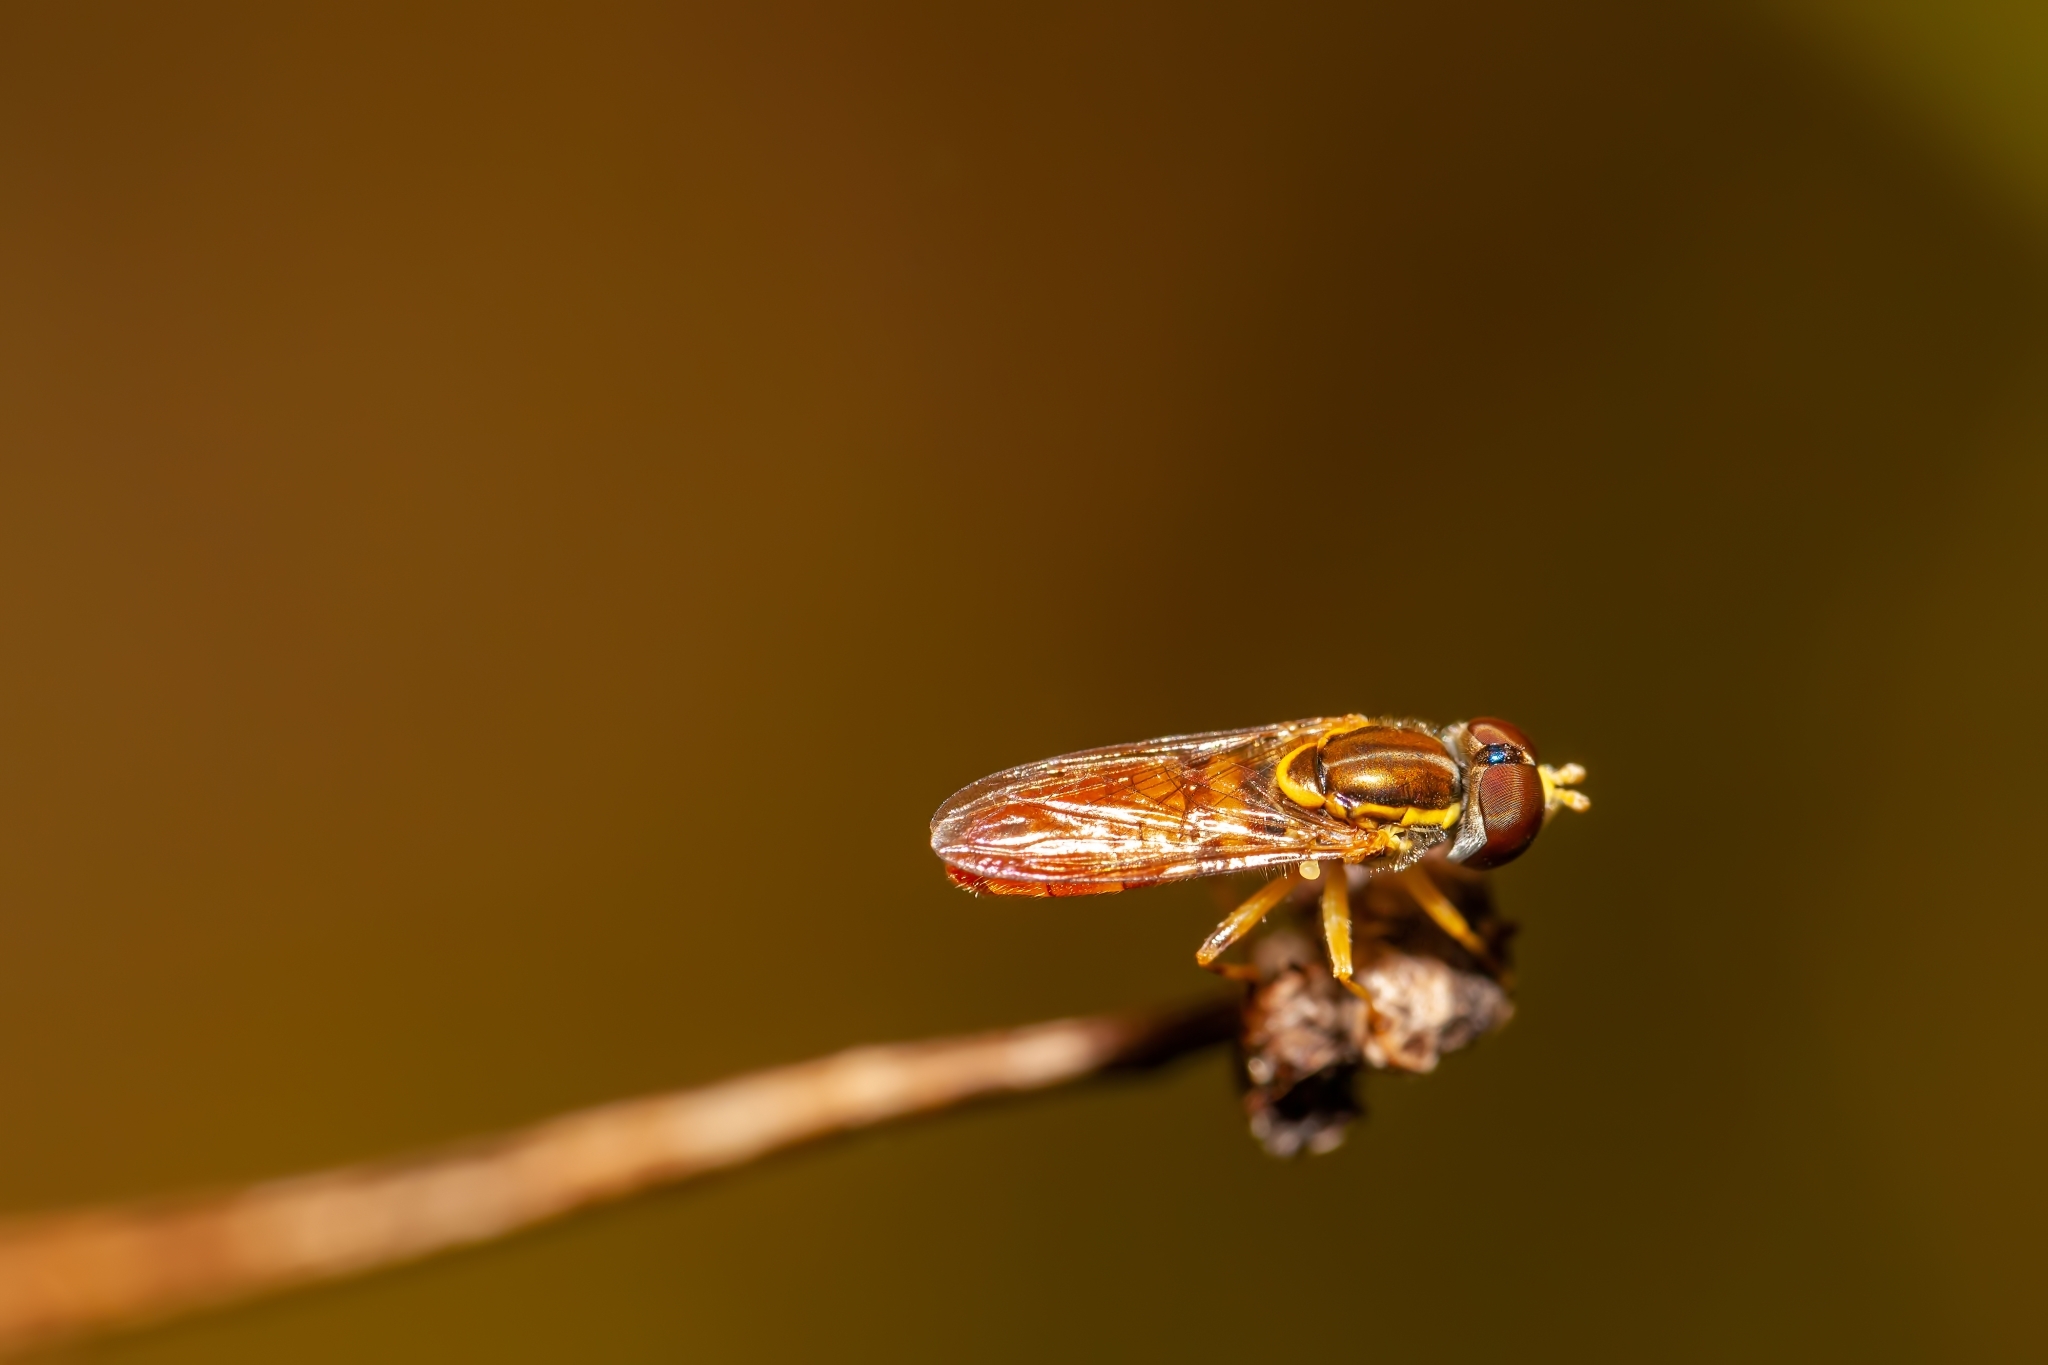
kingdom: Animalia
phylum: Arthropoda
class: Insecta
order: Diptera
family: Syrphidae
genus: Toxomerus
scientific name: Toxomerus floralis
